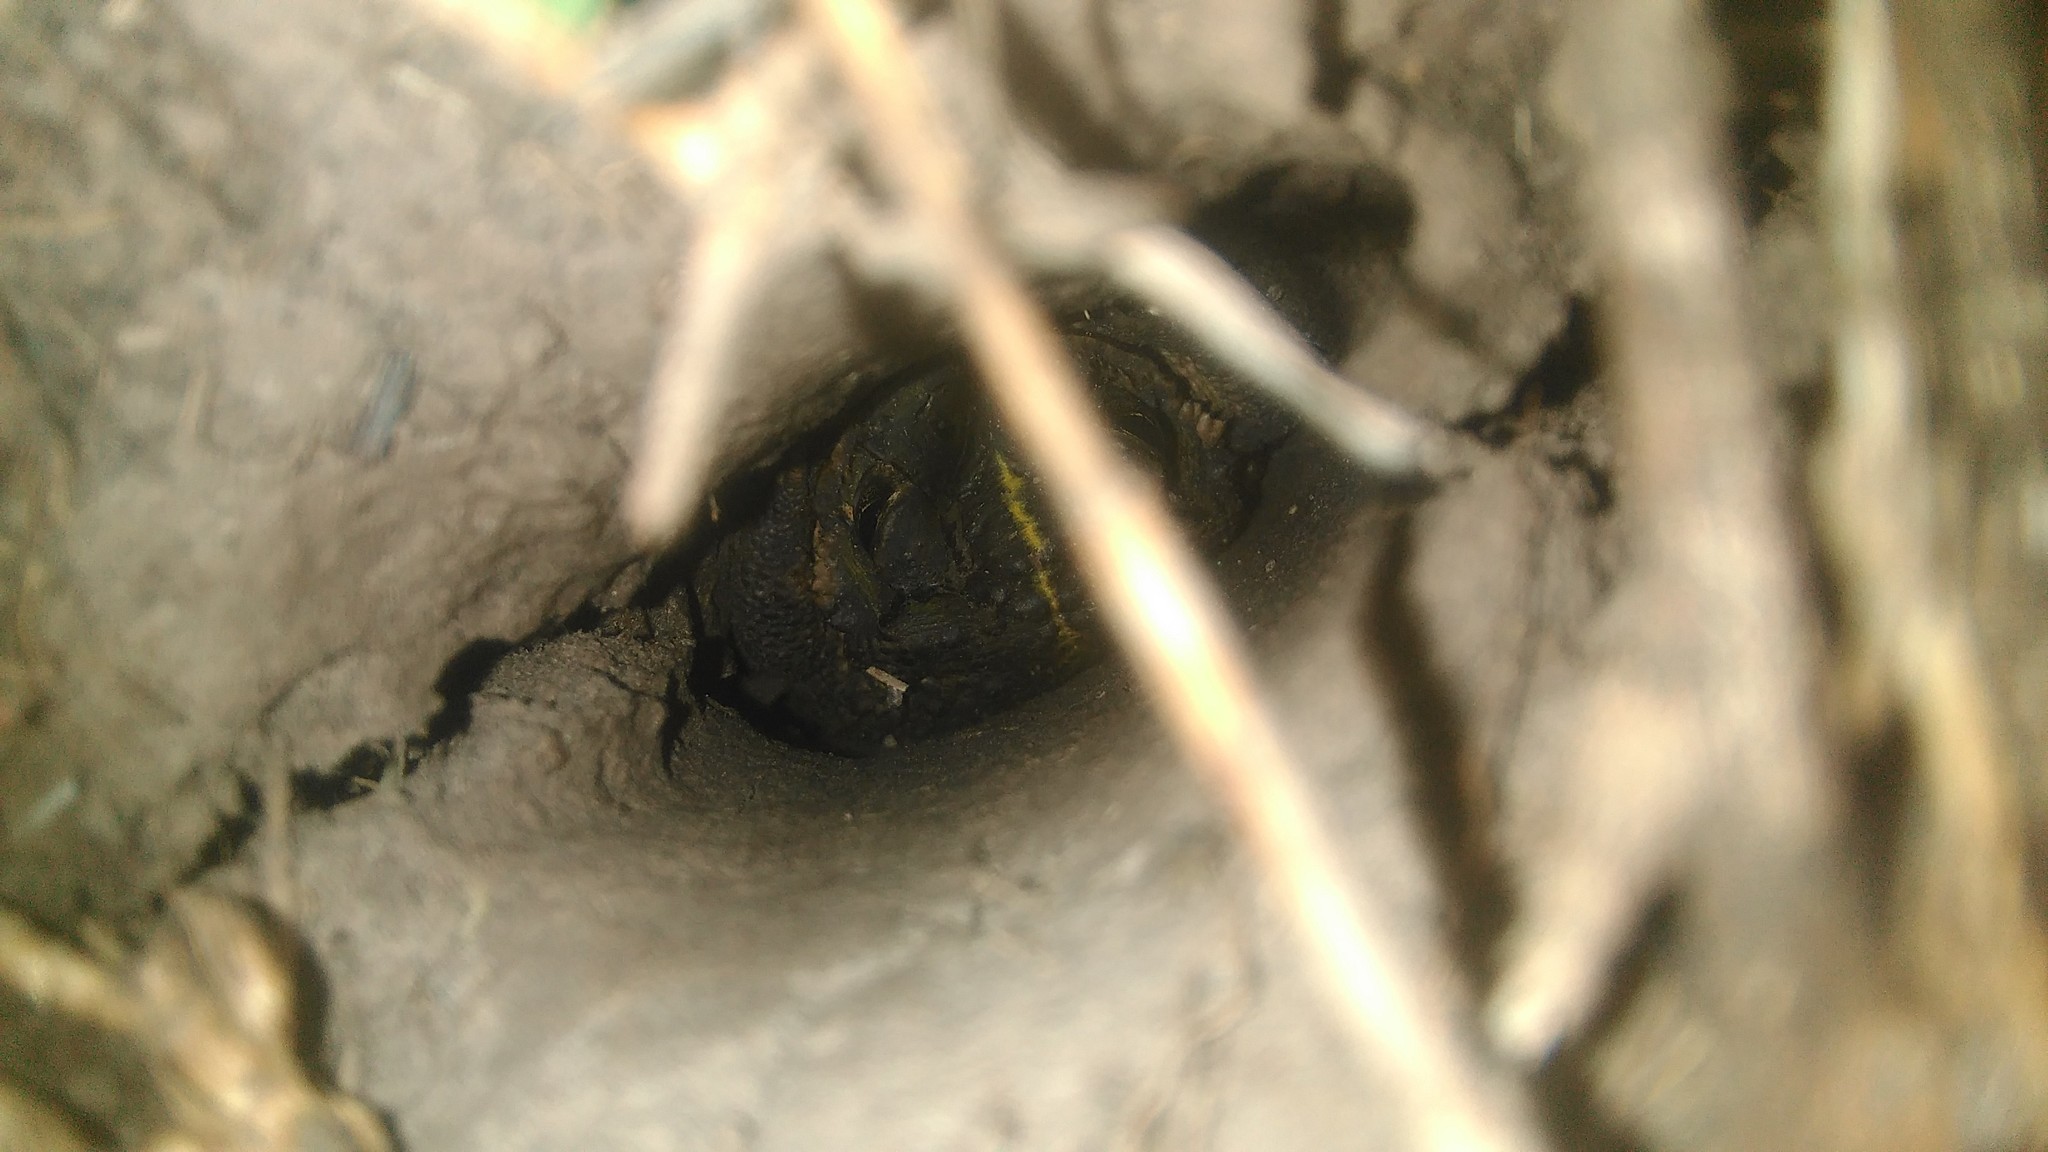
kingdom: Animalia
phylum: Chordata
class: Amphibia
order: Anura
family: Bufonidae
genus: Rhinella
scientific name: Rhinella dorbignyi
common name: D´orbigny’s toad
